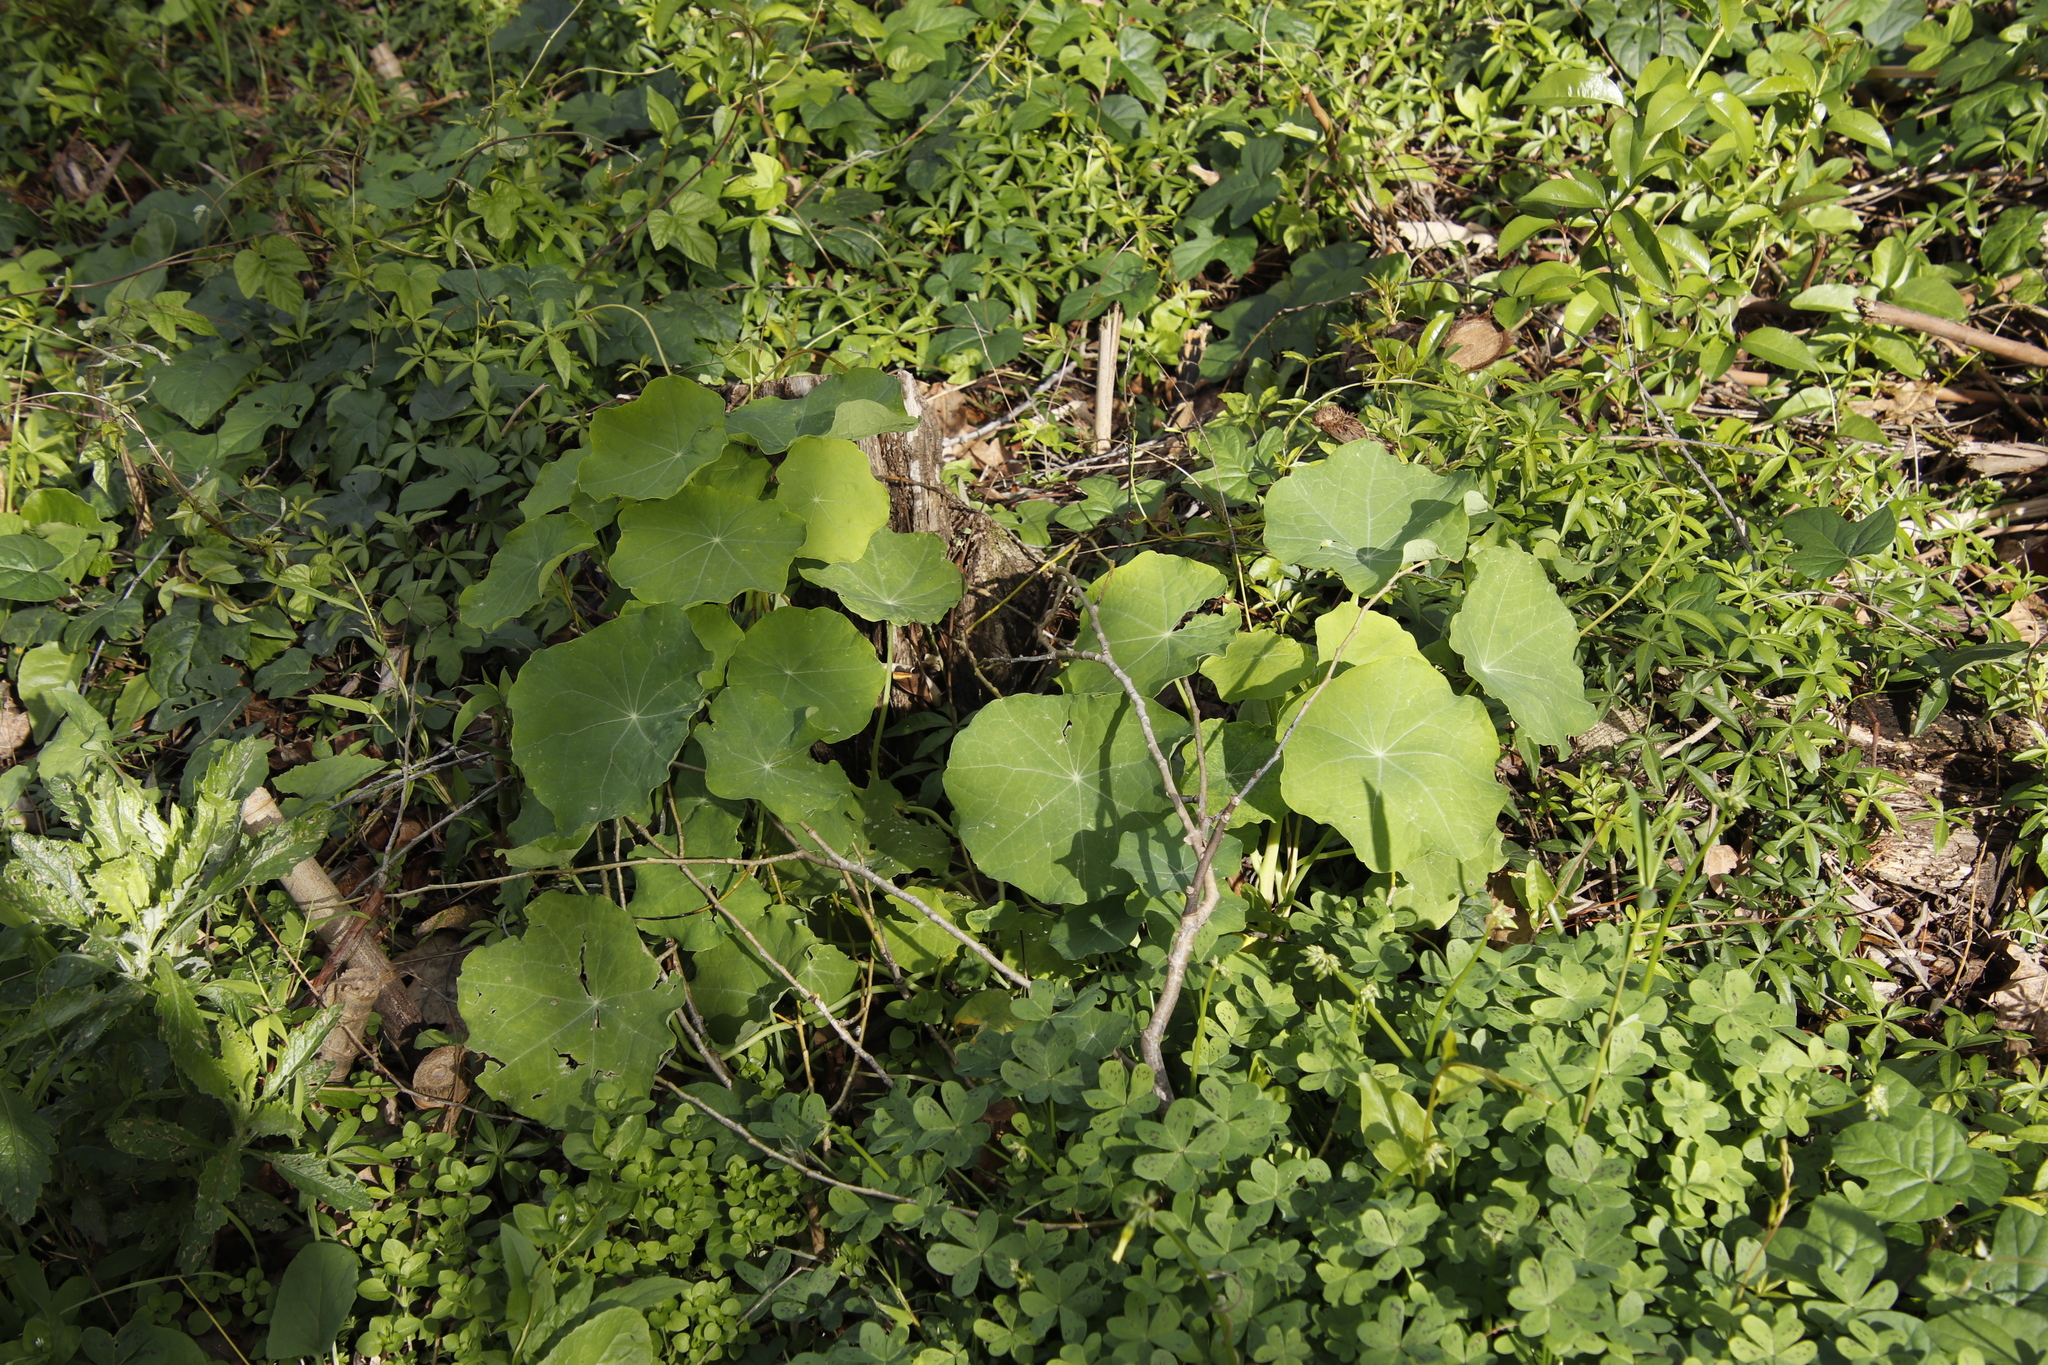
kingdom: Plantae
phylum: Tracheophyta
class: Magnoliopsida
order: Brassicales
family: Tropaeolaceae
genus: Tropaeolum
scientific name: Tropaeolum majus
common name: Nasturtium
